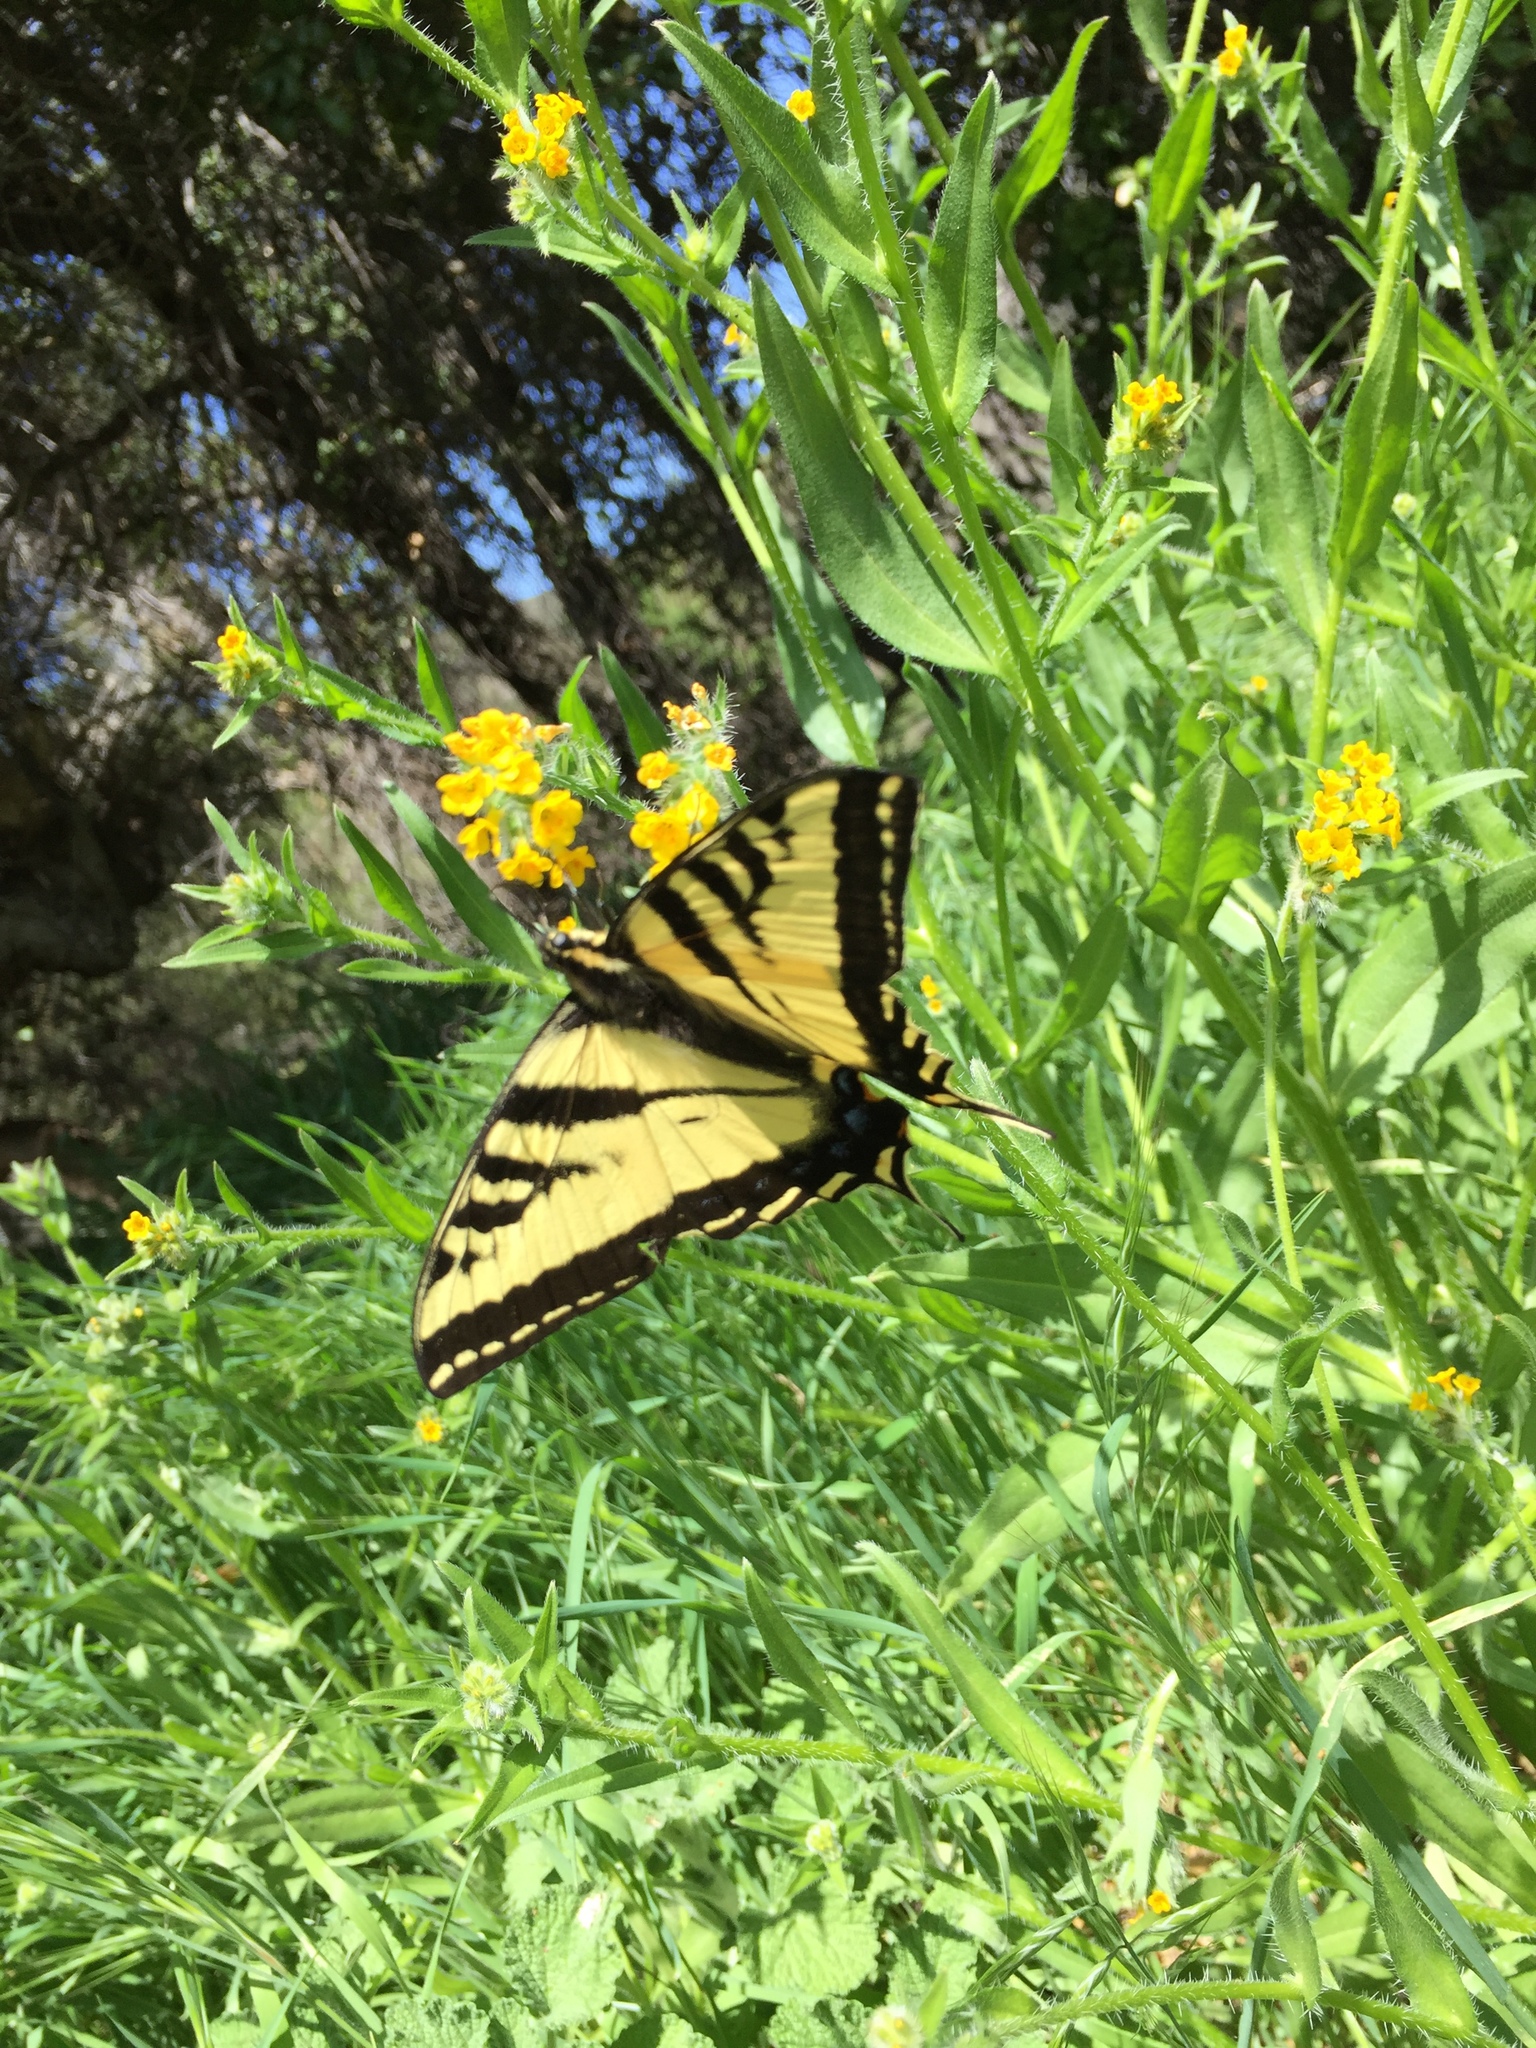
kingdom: Animalia
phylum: Arthropoda
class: Insecta
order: Lepidoptera
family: Papilionidae
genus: Papilio
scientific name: Papilio rutulus
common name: Western tiger swallowtail
